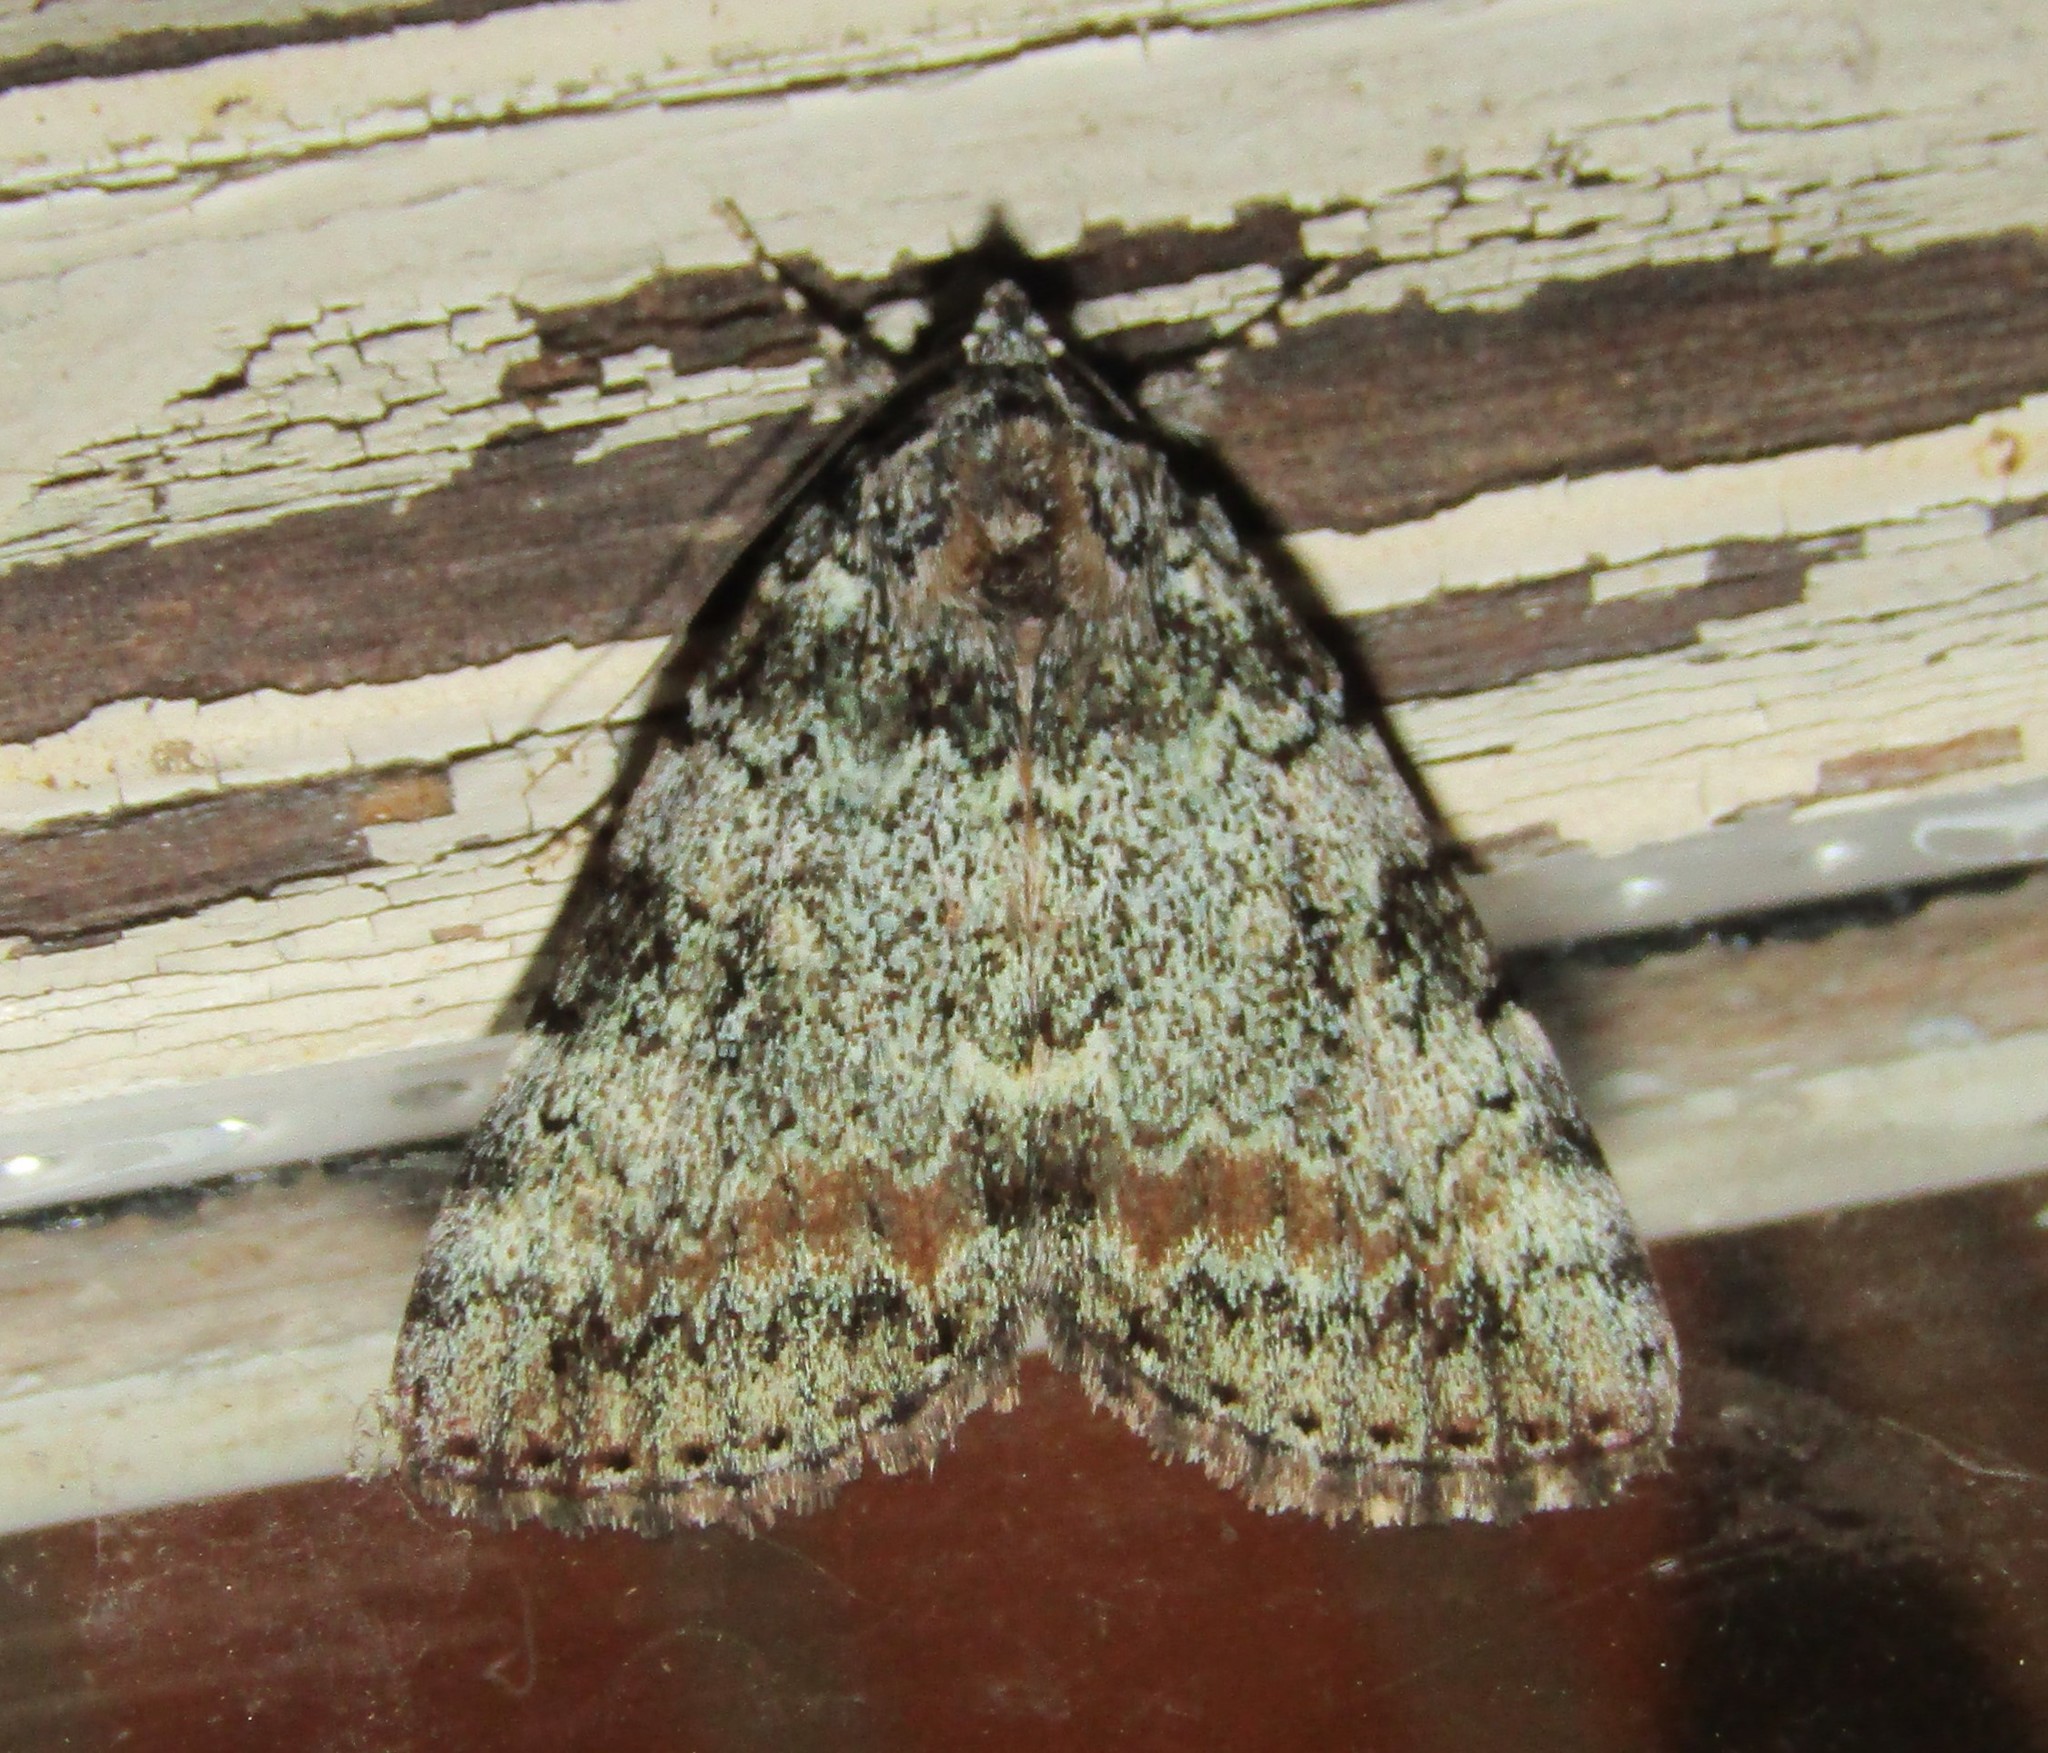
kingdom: Animalia
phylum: Arthropoda
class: Insecta
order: Lepidoptera
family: Erebidae
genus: Catocala
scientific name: Catocala connubialis
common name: Connubial underwing
